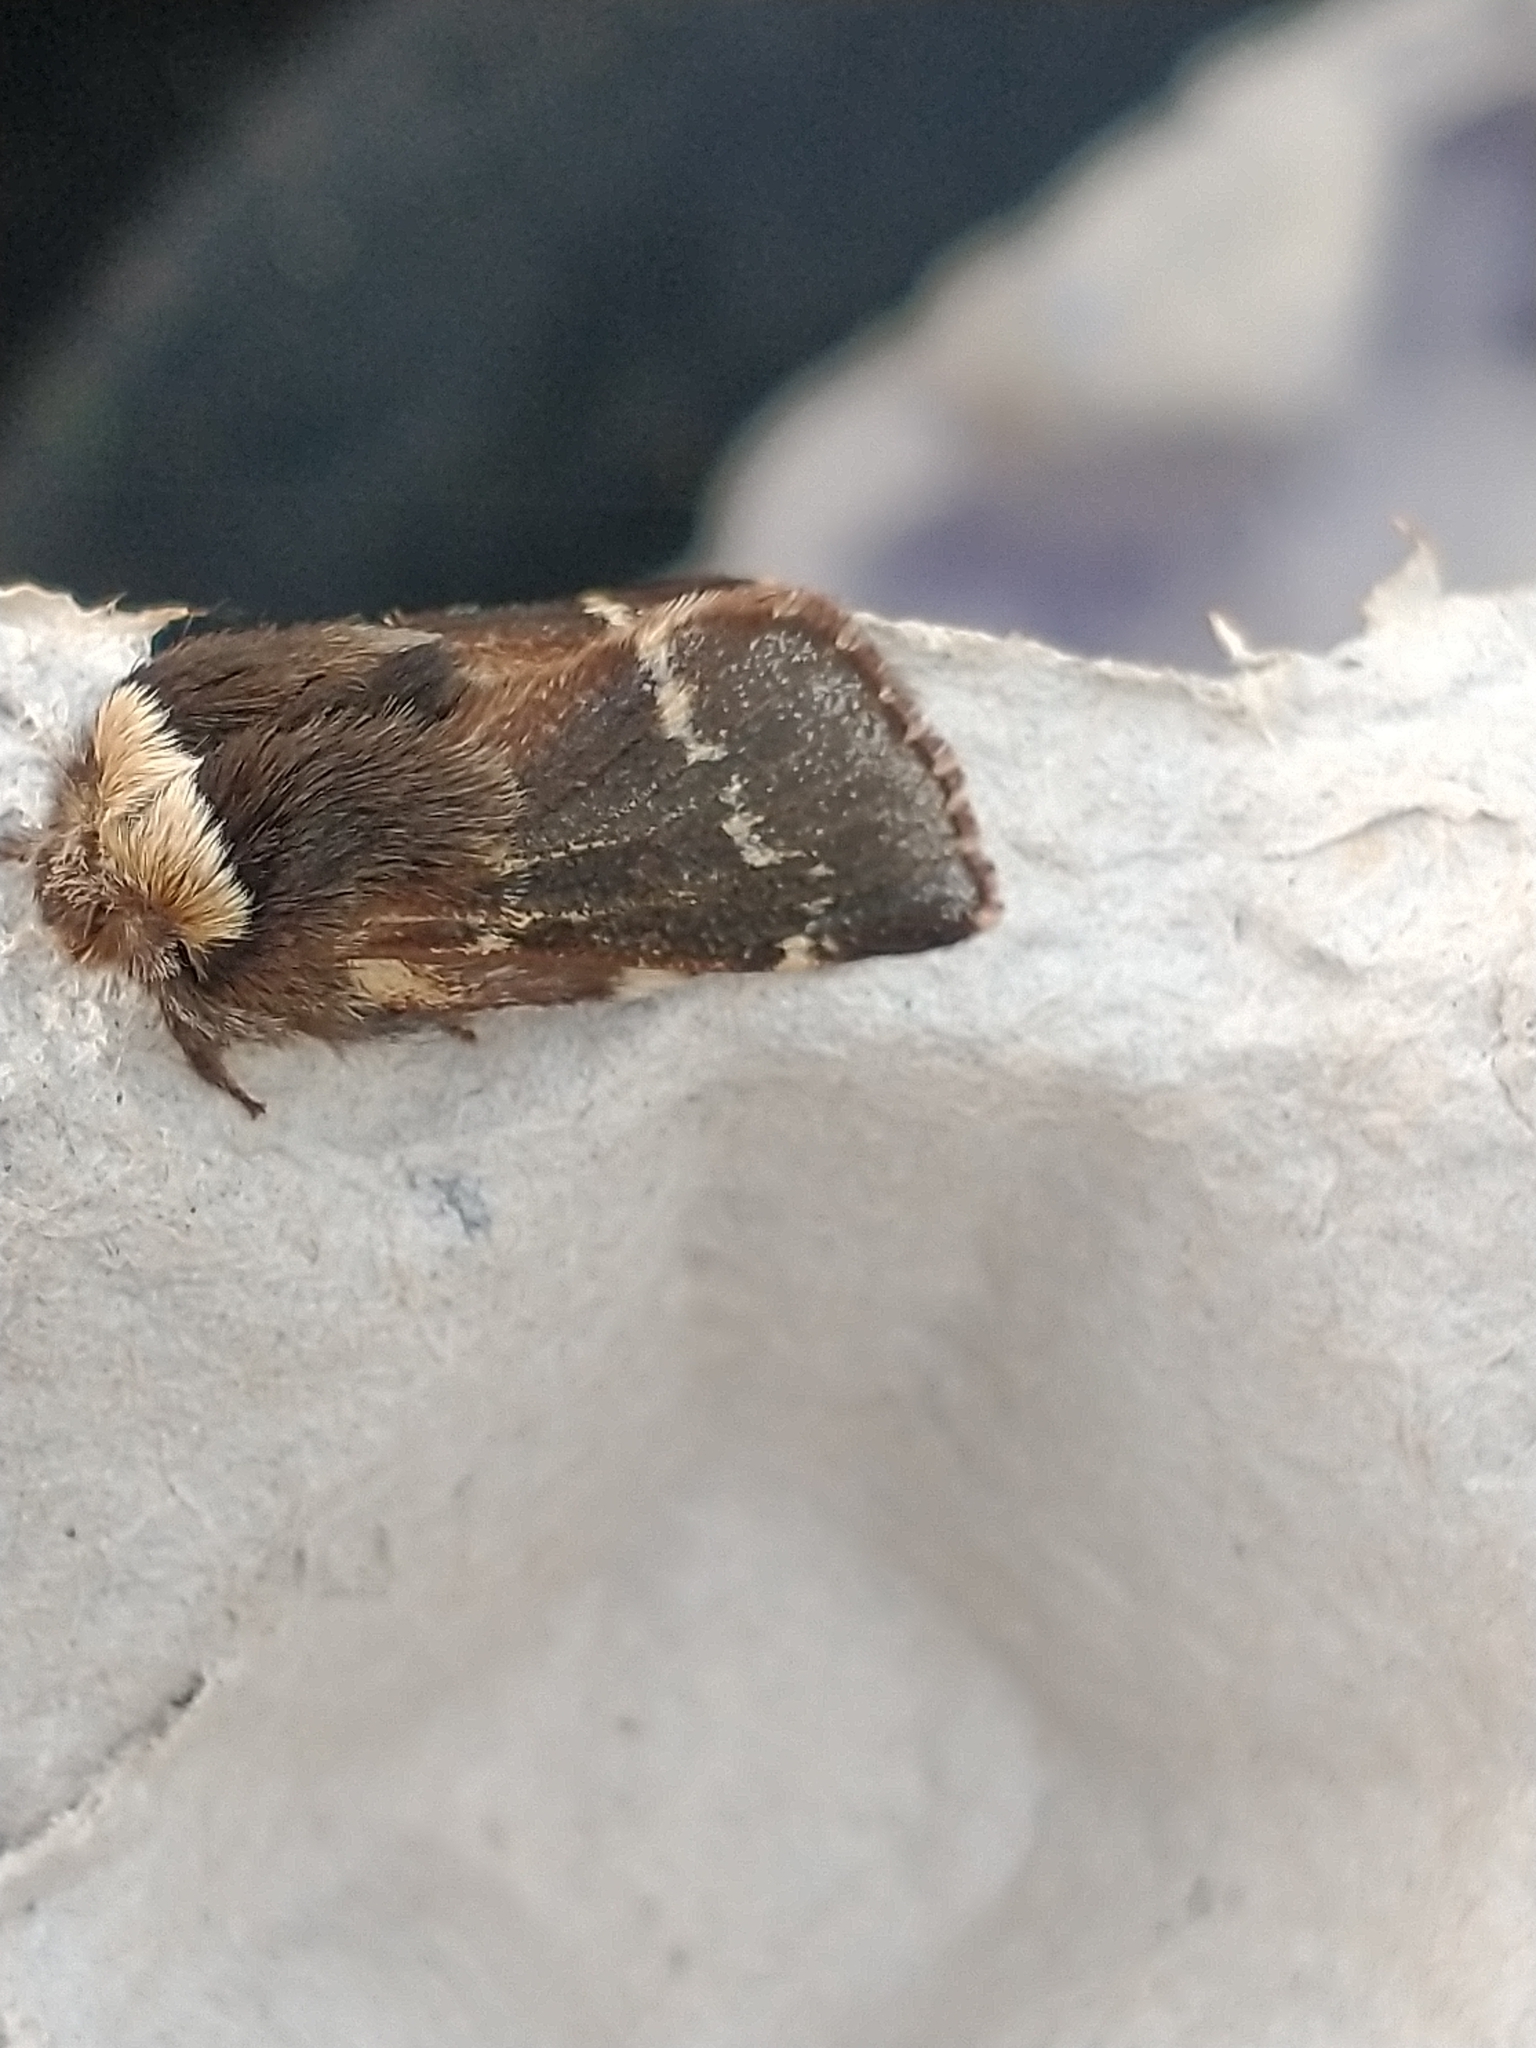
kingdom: Animalia
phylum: Arthropoda
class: Insecta
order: Lepidoptera
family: Lasiocampidae
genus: Poecilocampa
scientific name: Poecilocampa populi
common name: December moth
